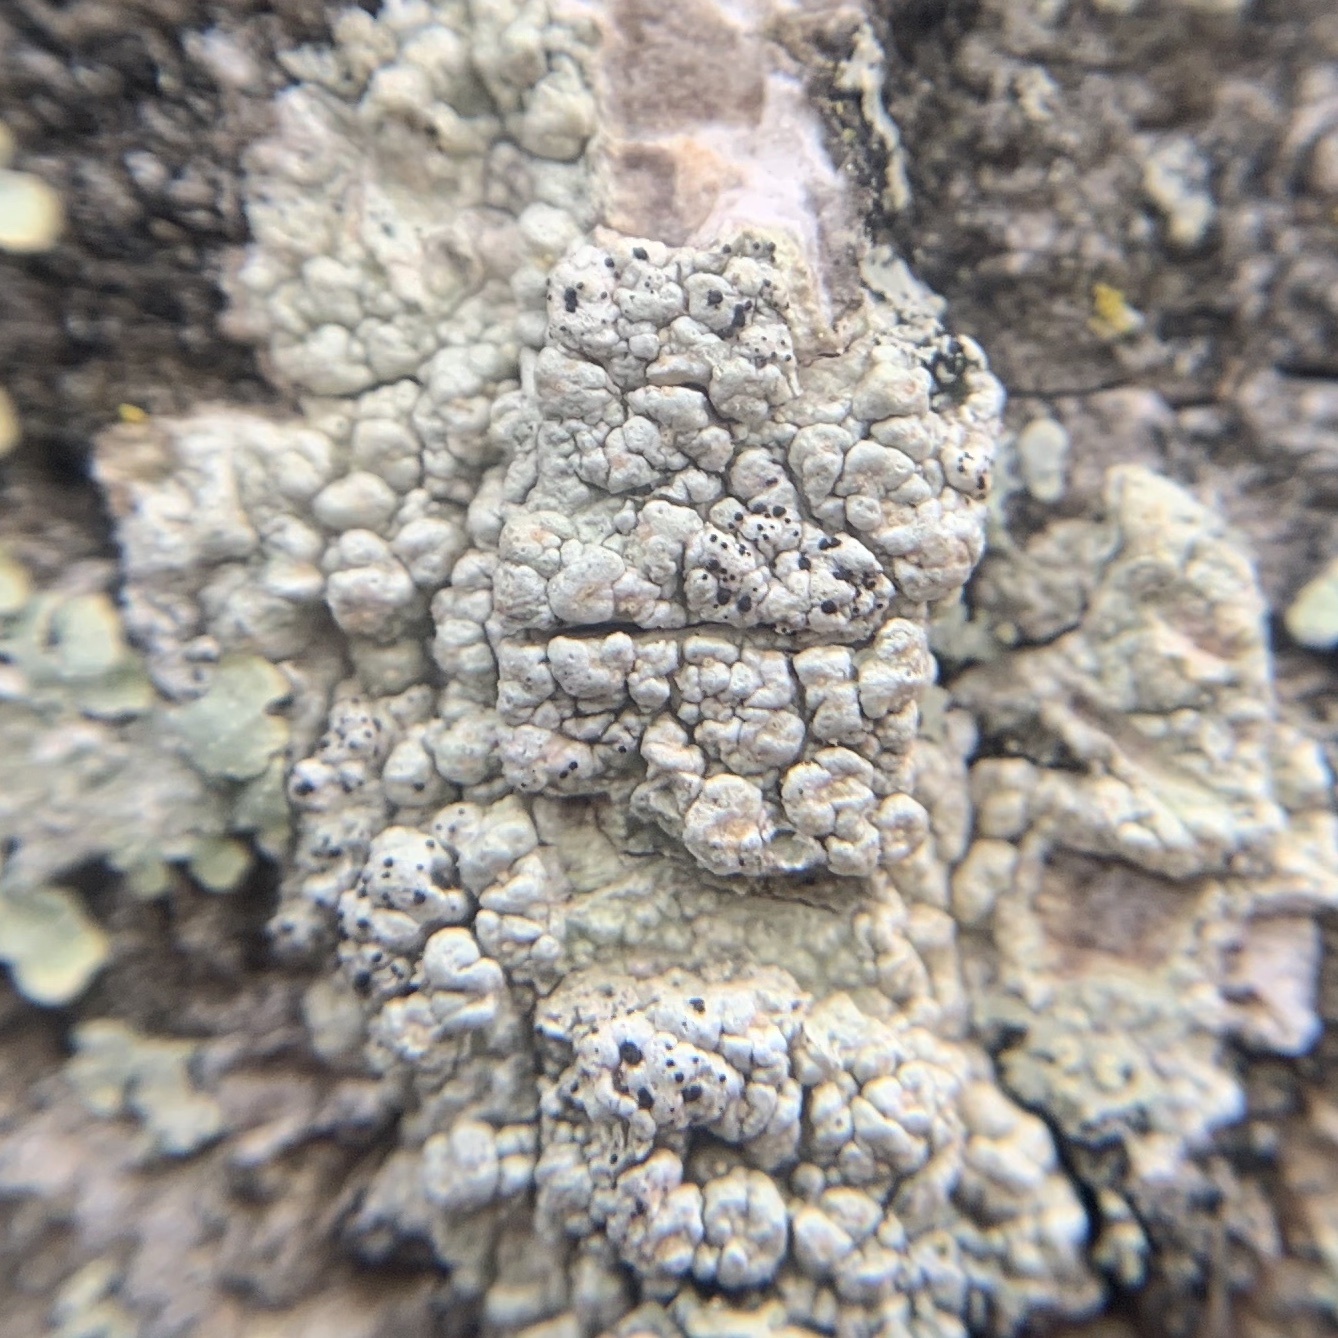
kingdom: Fungi
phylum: Ascomycota
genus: Minutoexcipula
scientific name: Minutoexcipula tuckerae
